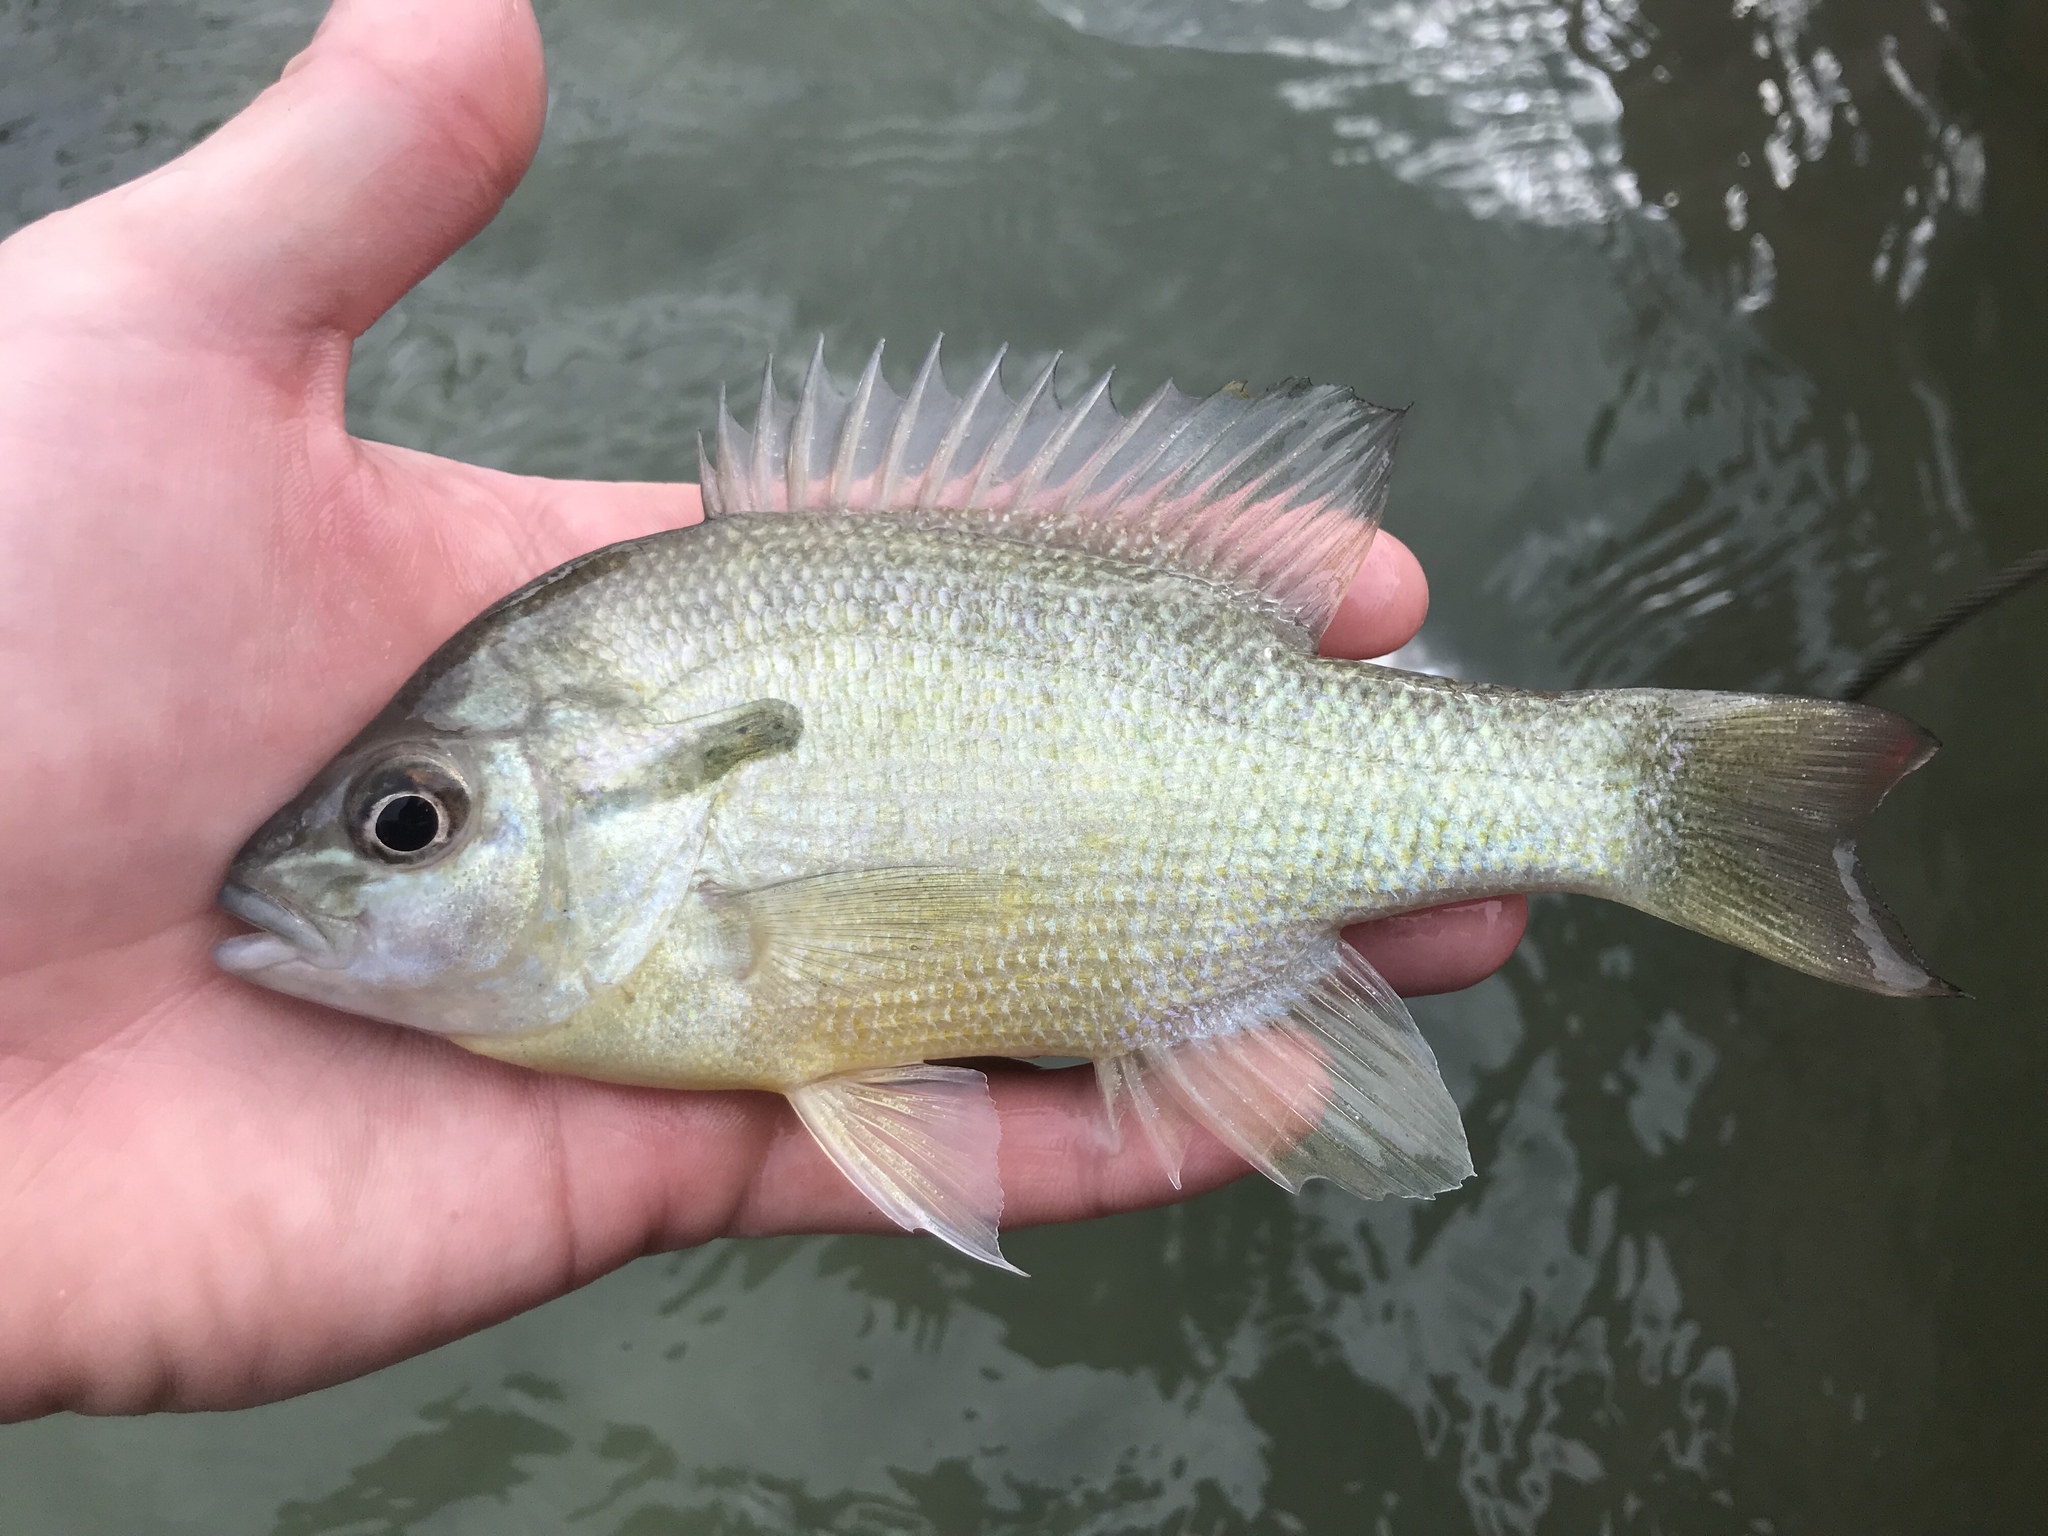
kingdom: Animalia
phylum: Chordata
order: Perciformes
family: Centrarchidae
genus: Lepomis
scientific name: Lepomis auritus
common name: Redbreast sunfish
